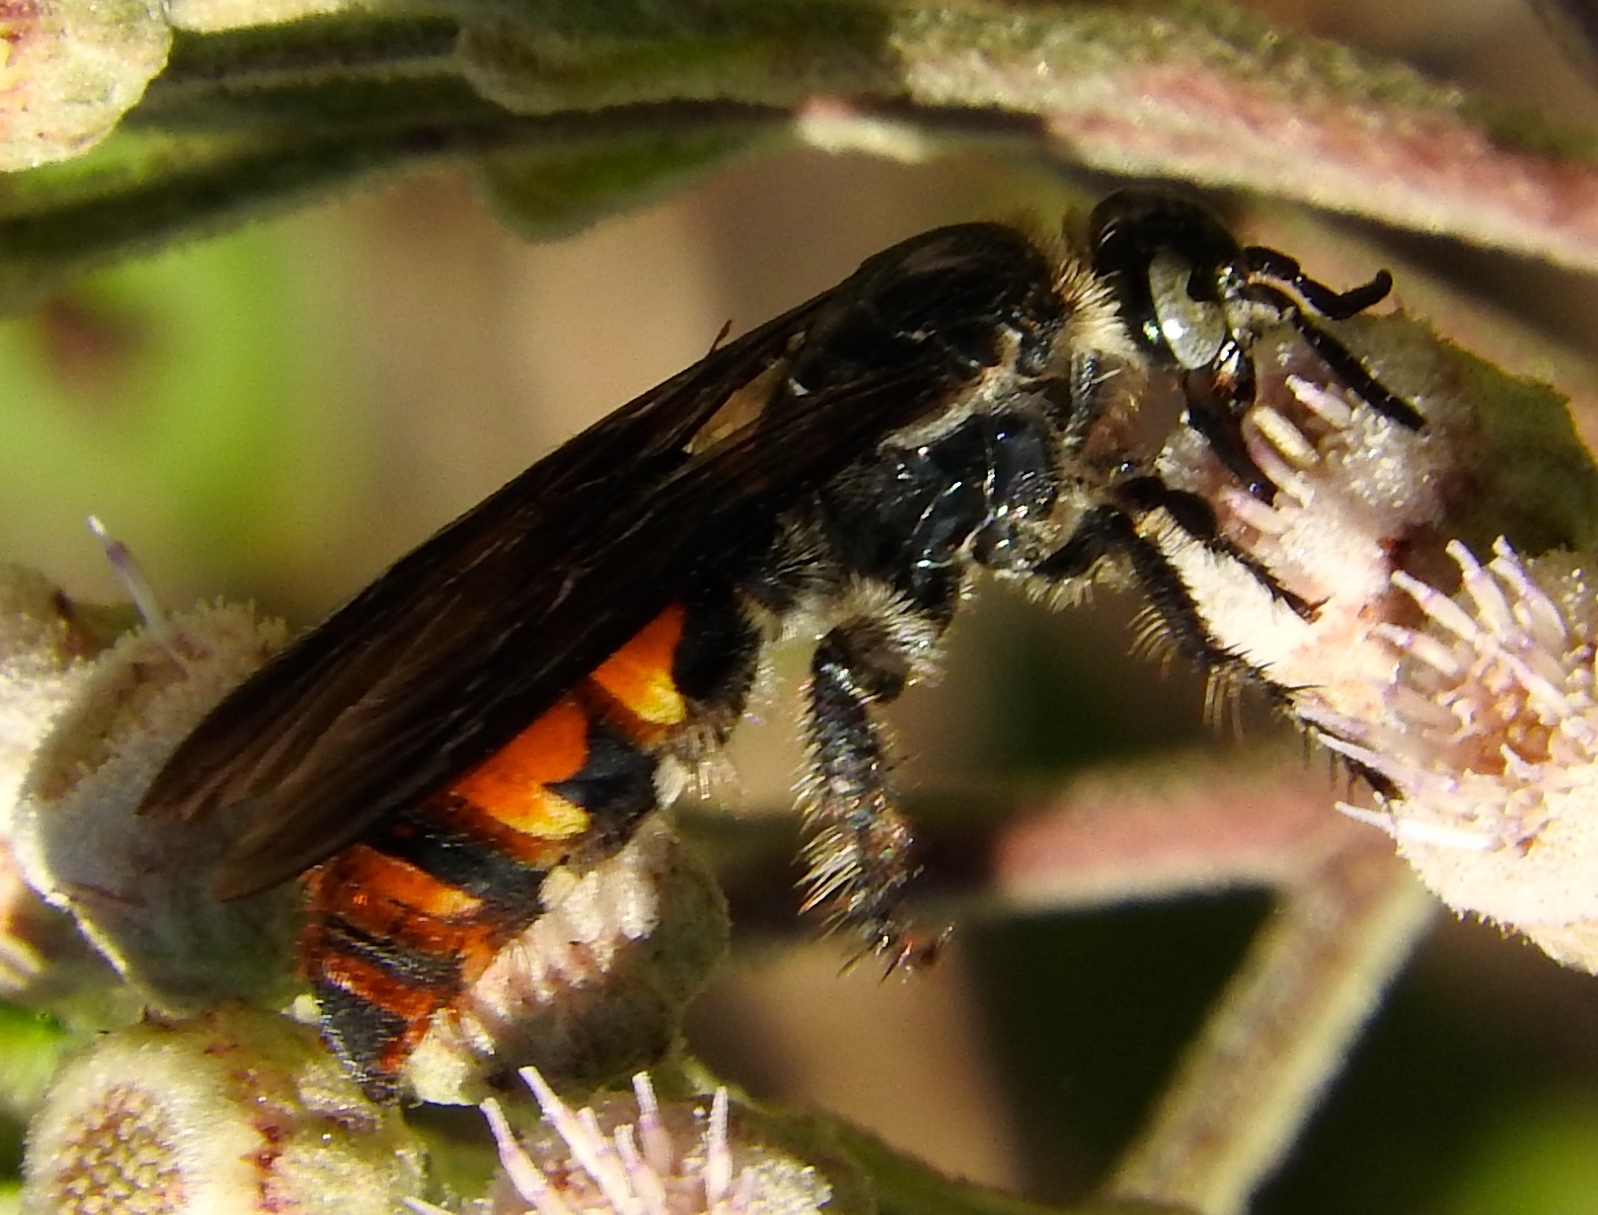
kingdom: Animalia
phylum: Arthropoda
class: Insecta
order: Hymenoptera
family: Scoliidae
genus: Dielis
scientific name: Dielis tolteca
